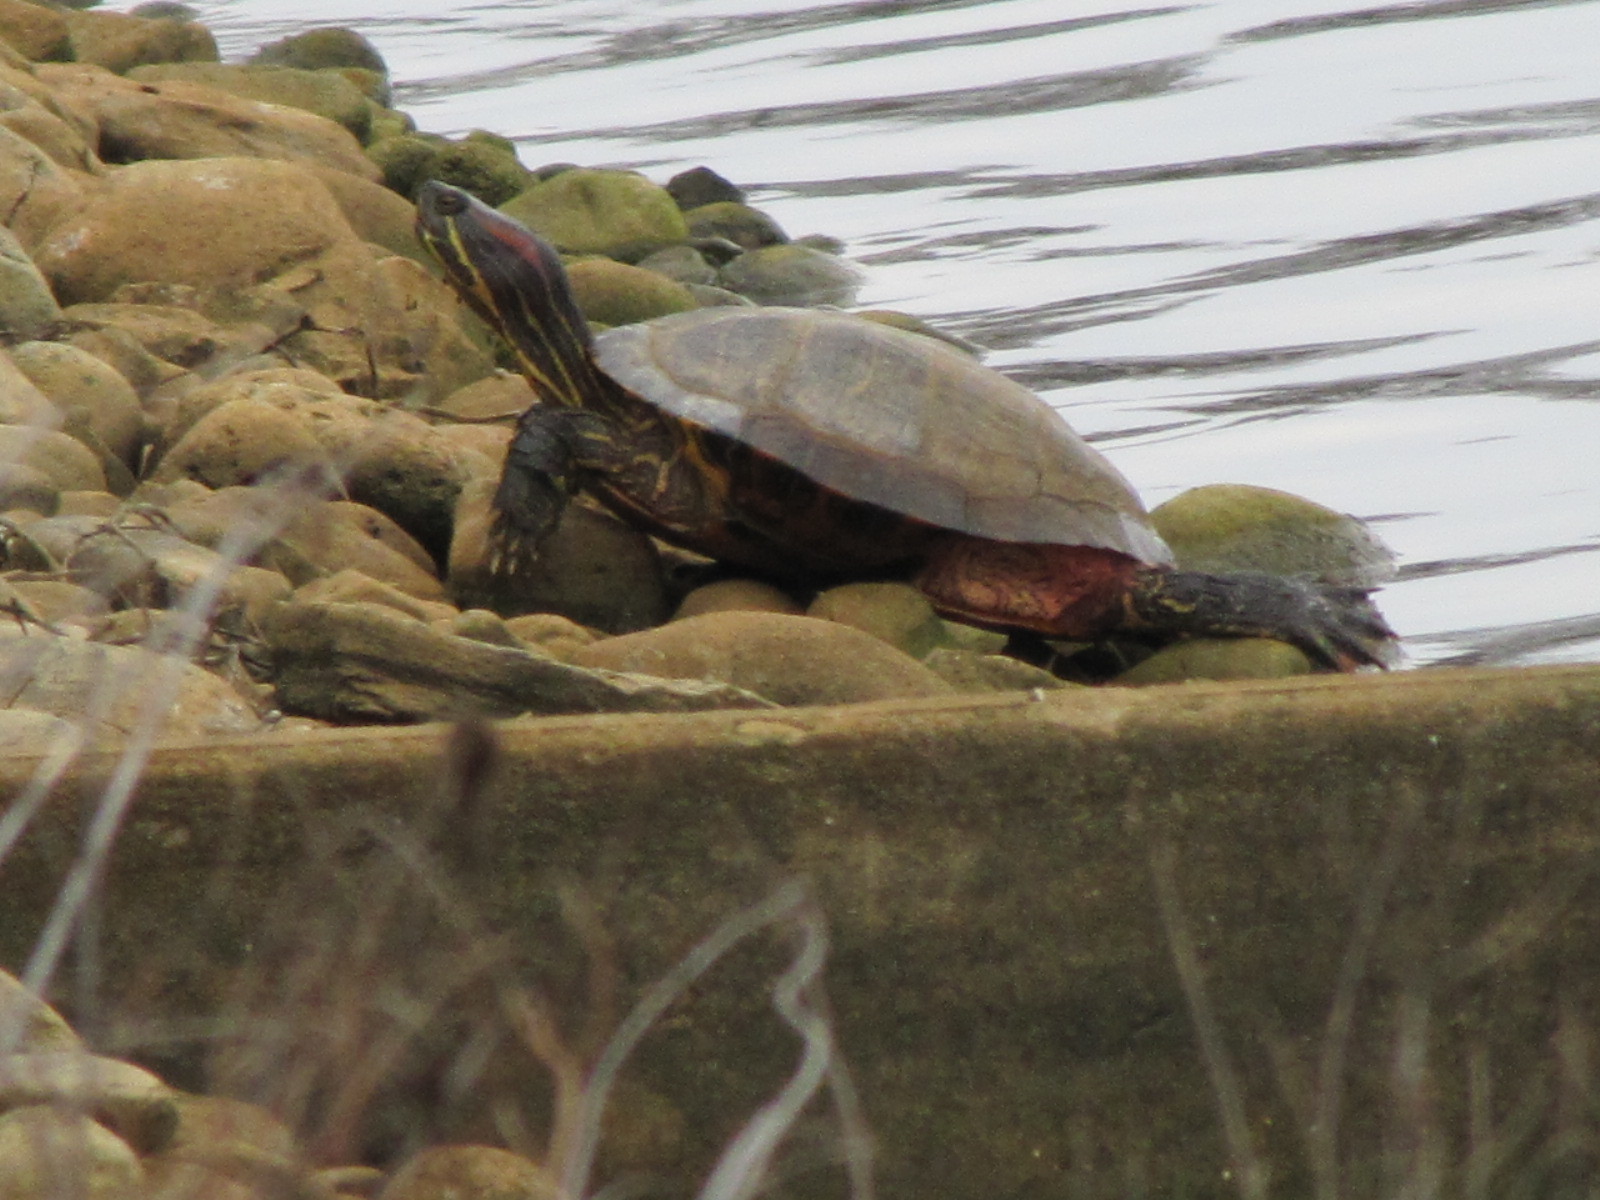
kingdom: Animalia
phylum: Chordata
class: Testudines
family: Emydidae
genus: Trachemys
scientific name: Trachemys scripta
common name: Slider
